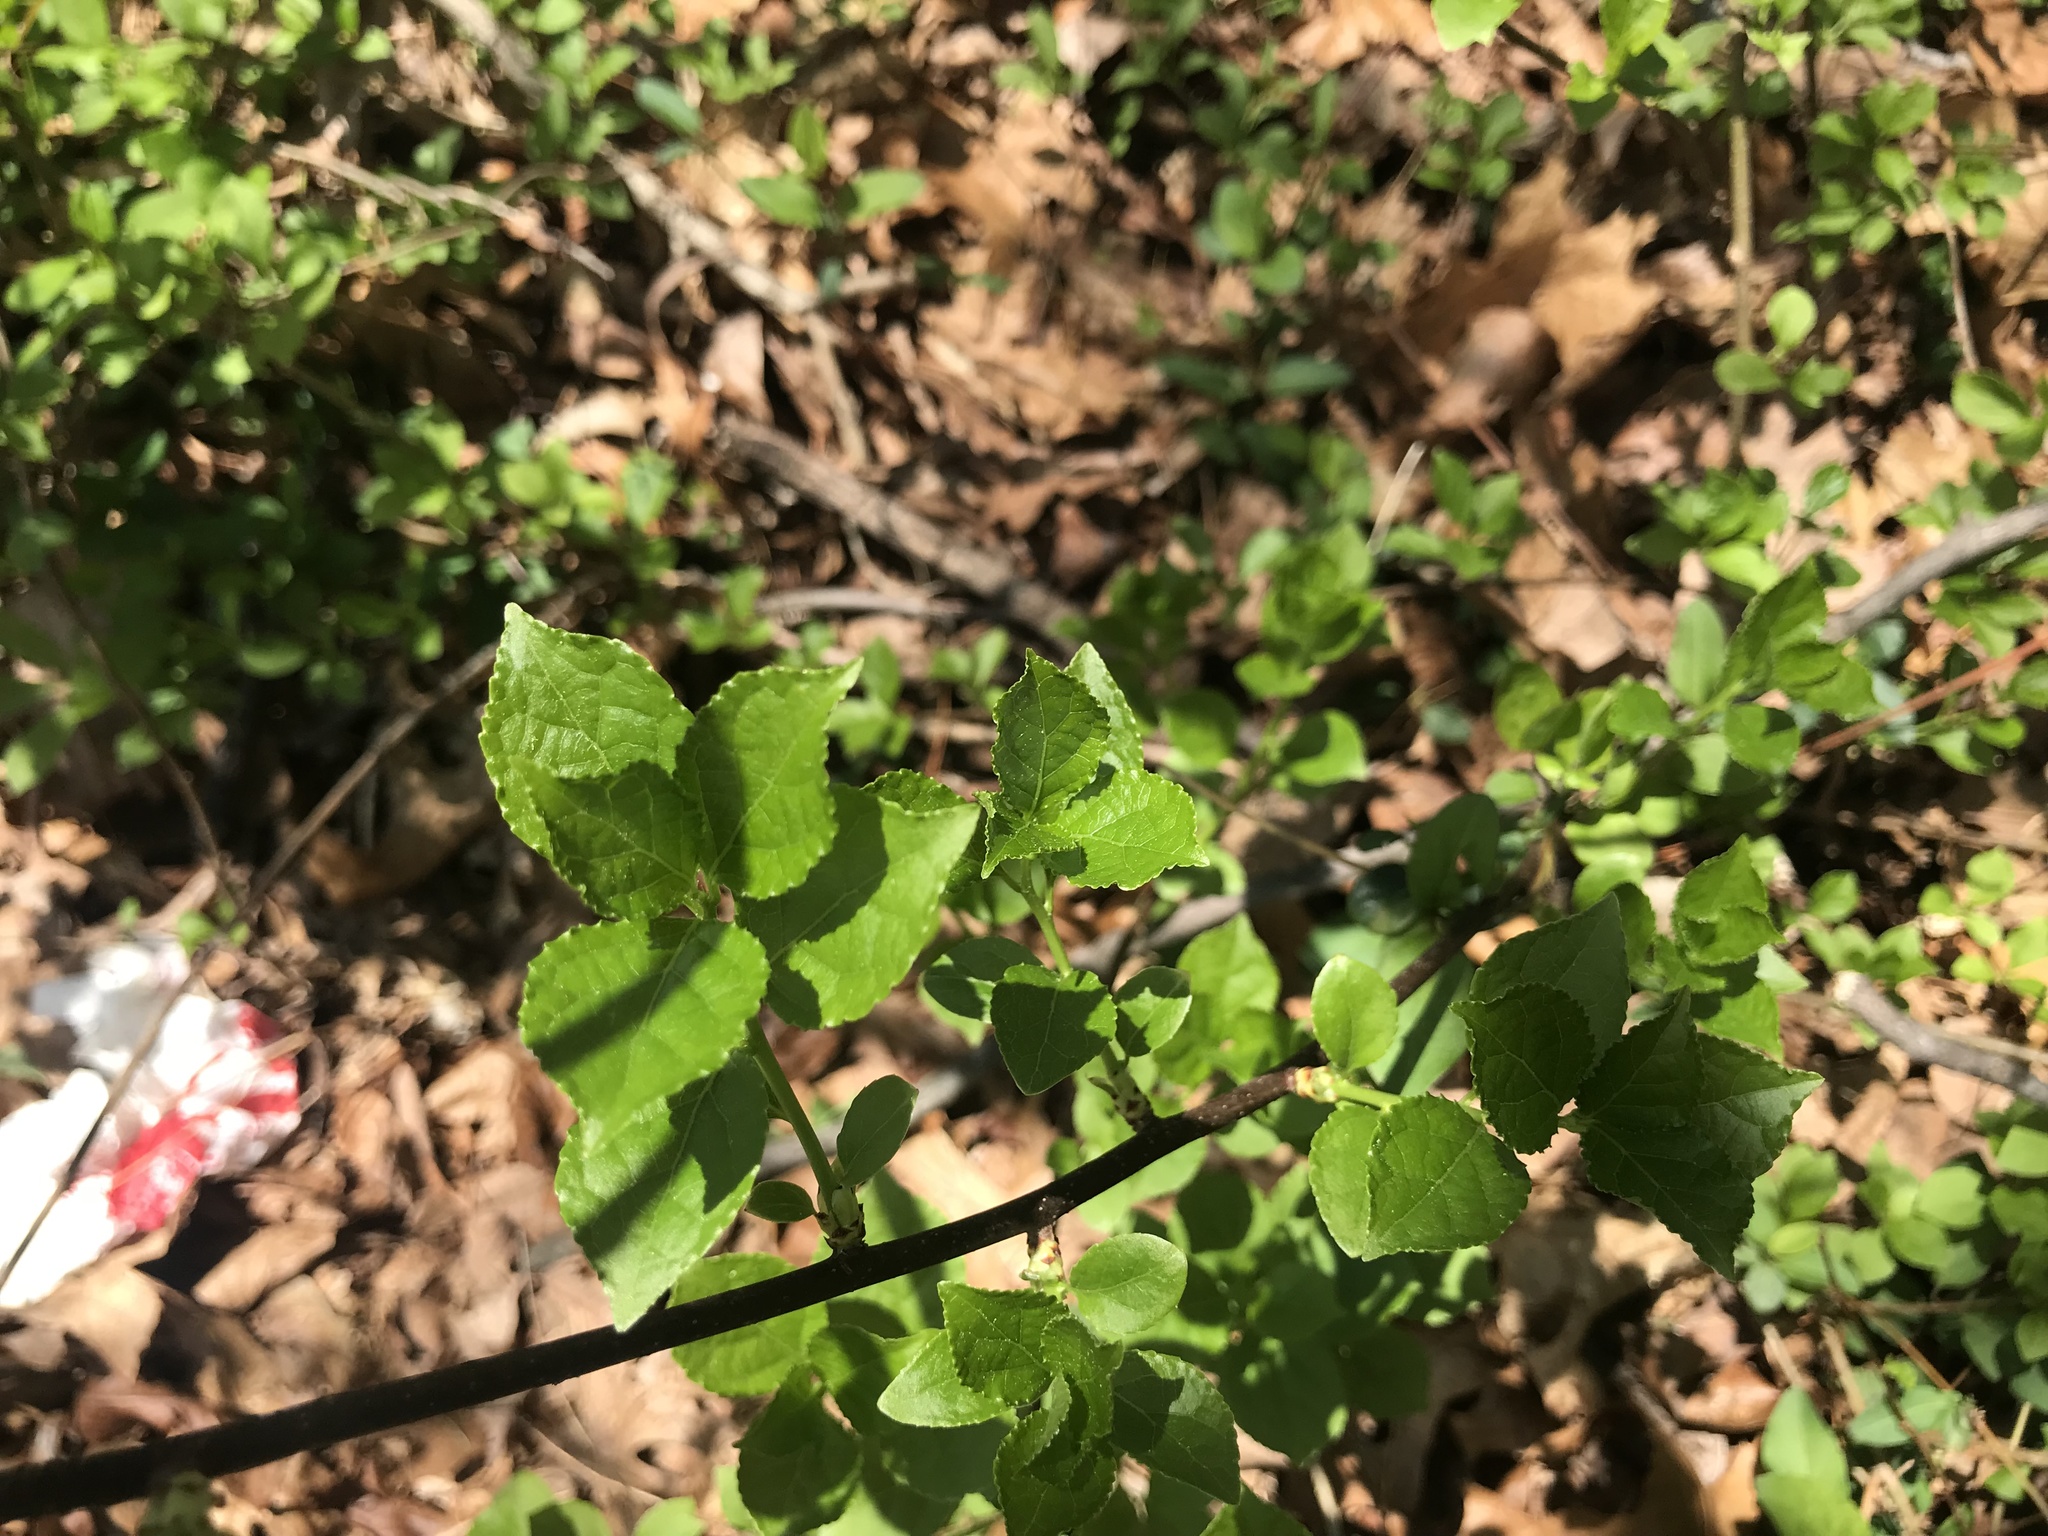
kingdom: Plantae
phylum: Tracheophyta
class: Magnoliopsida
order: Celastrales
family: Celastraceae
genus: Celastrus
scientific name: Celastrus orbiculatus
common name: Oriental bittersweet
